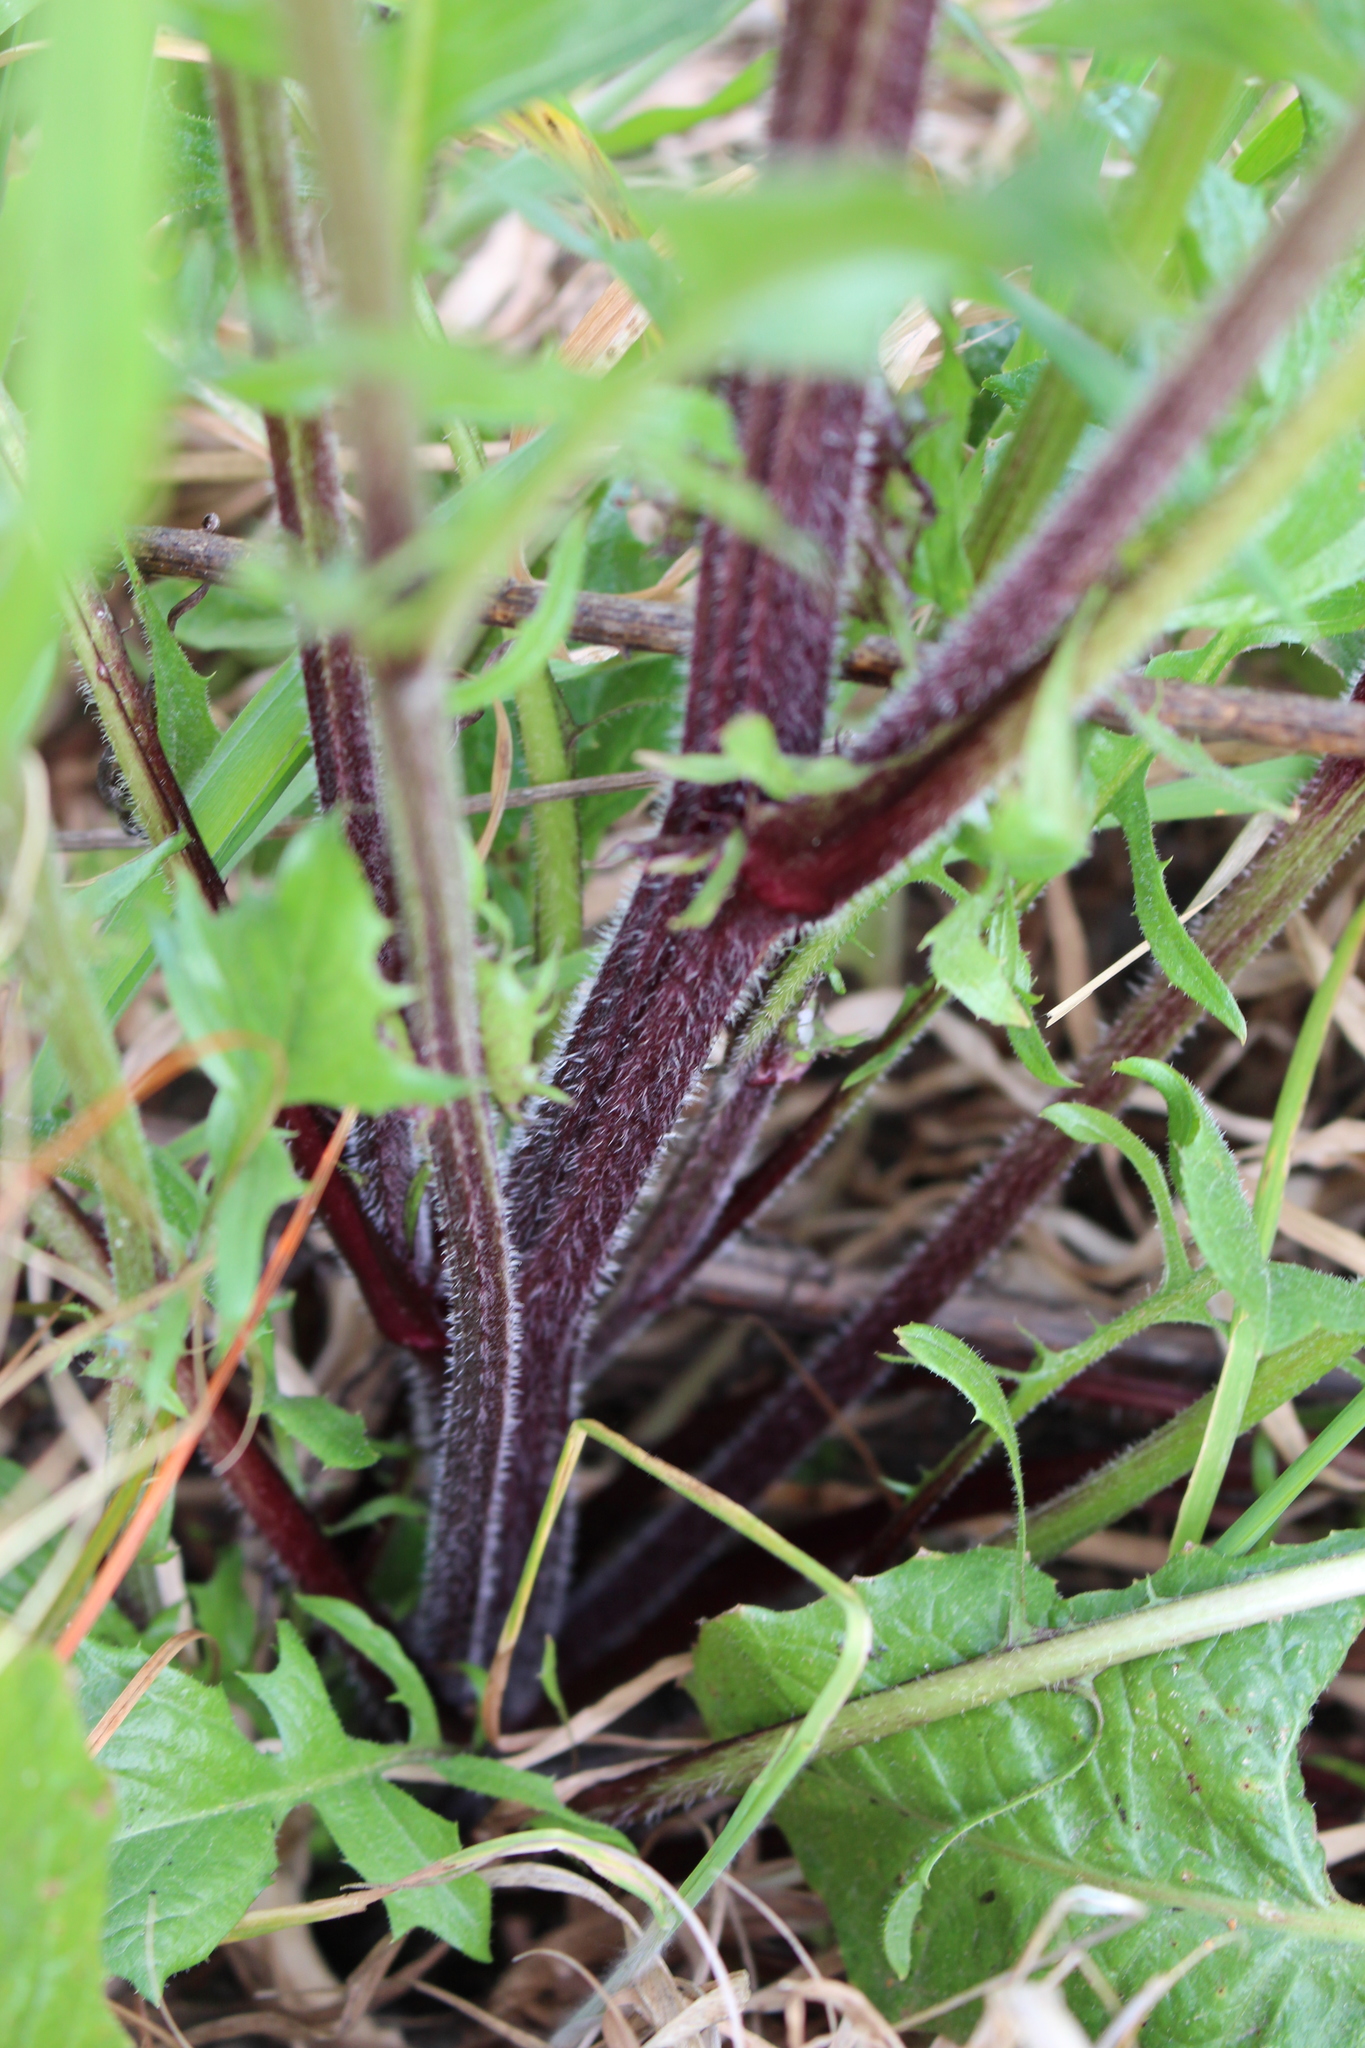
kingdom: Plantae
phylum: Tracheophyta
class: Magnoliopsida
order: Asterales
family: Asteraceae
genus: Crepis
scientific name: Crepis vesicaria
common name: Beaked hawksbeard
